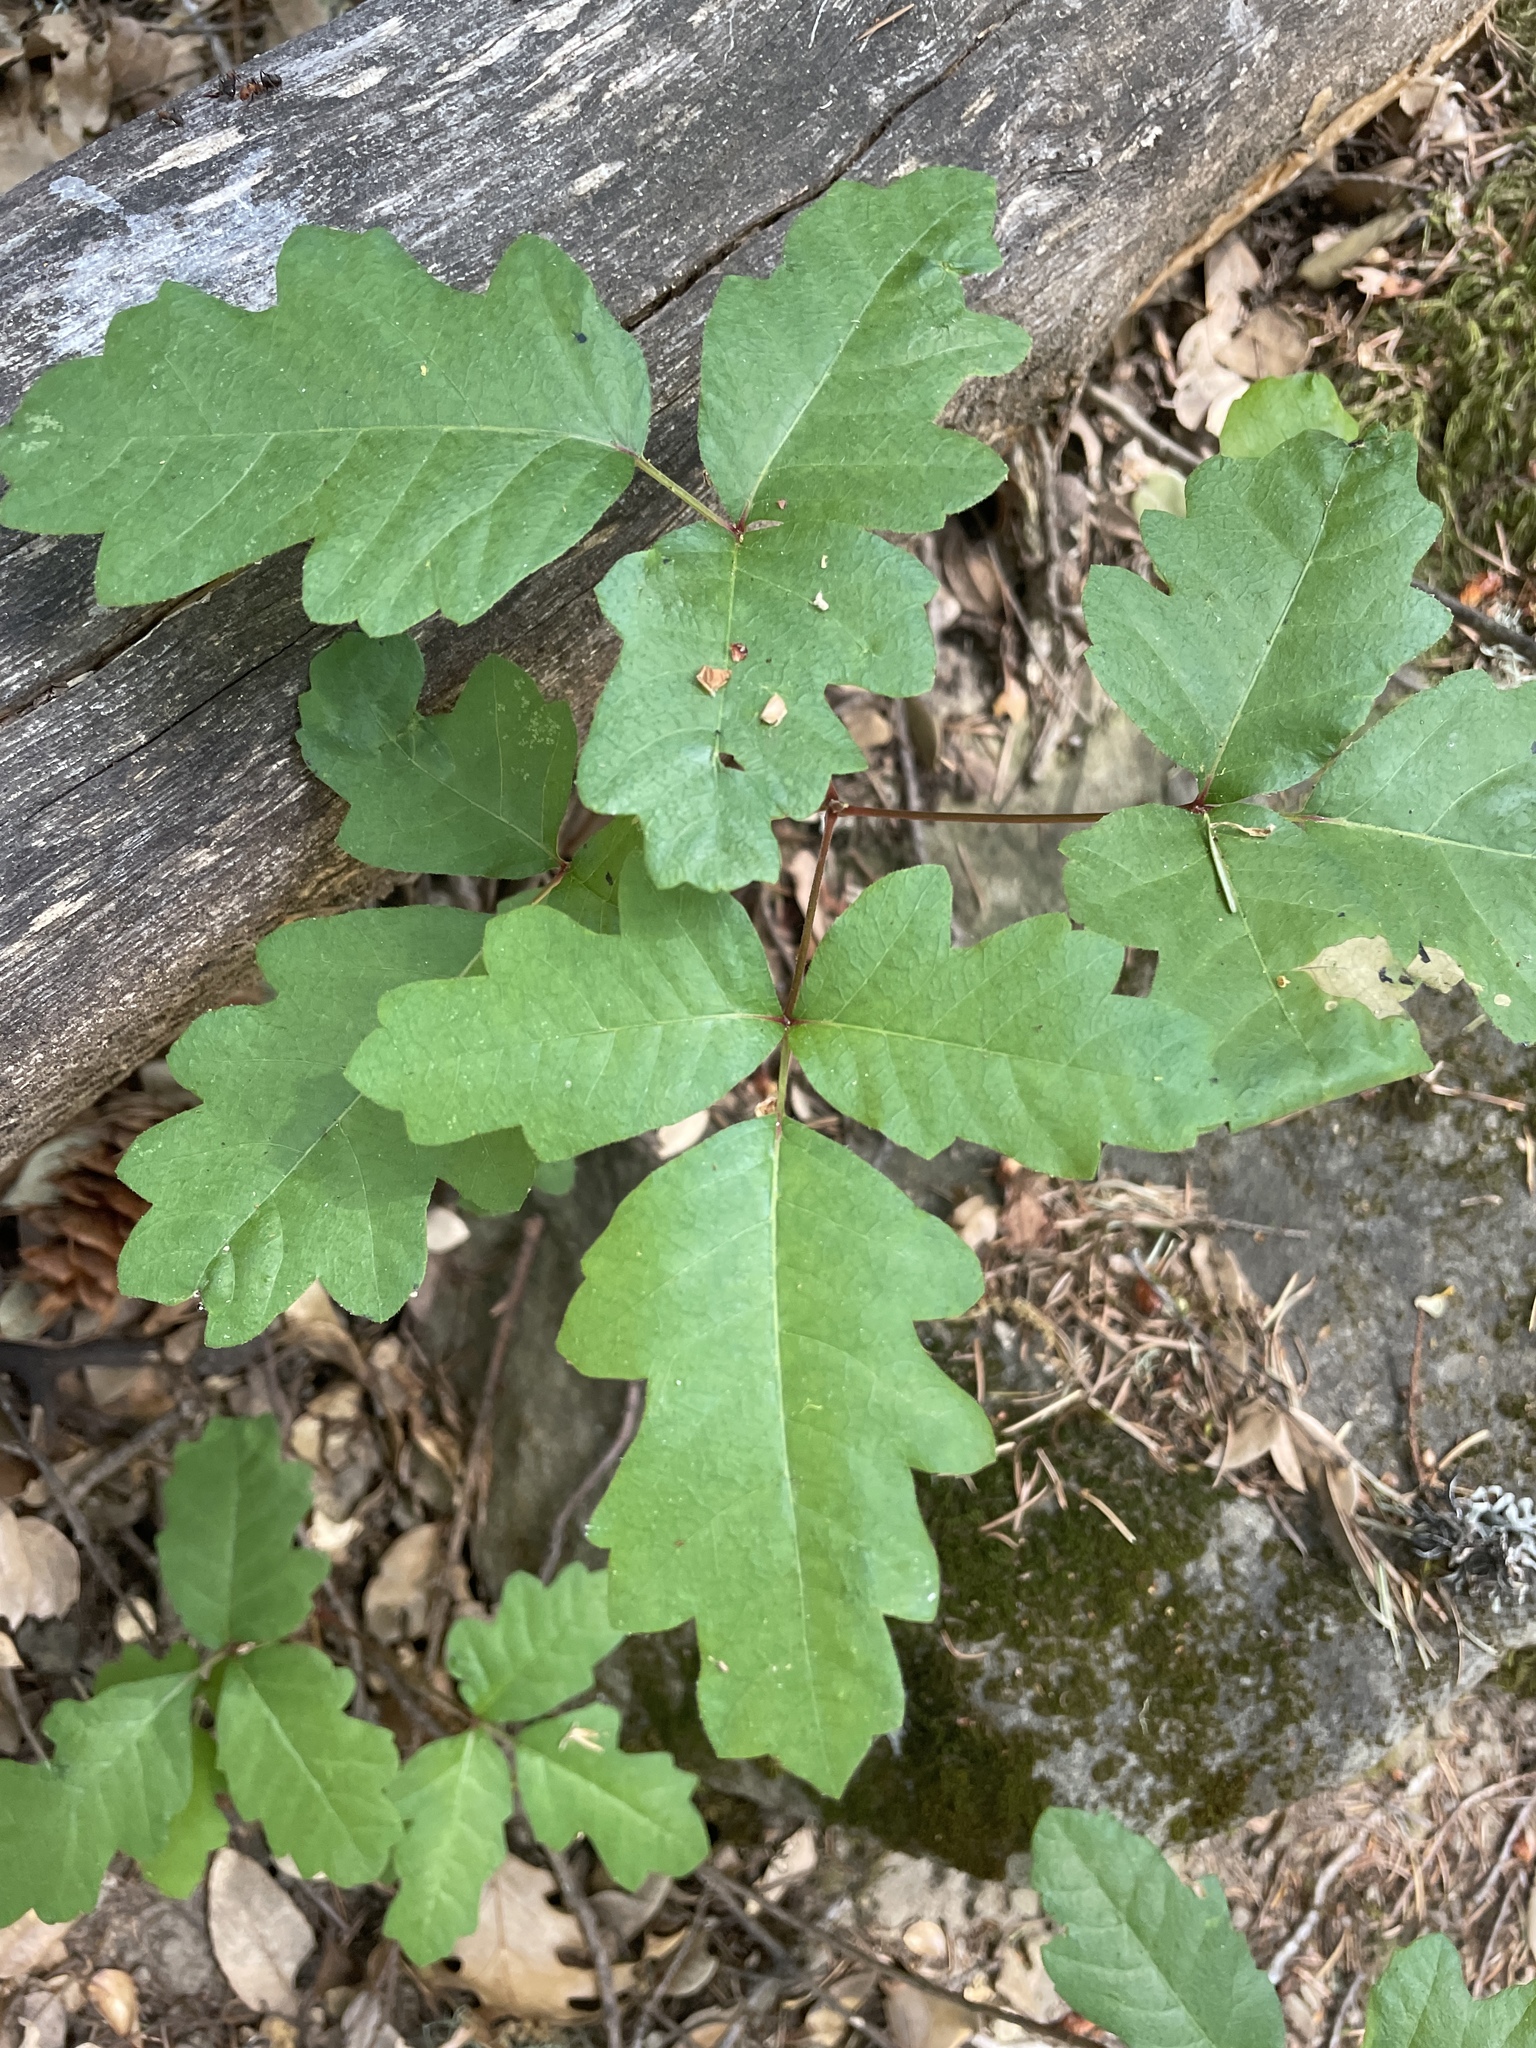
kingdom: Plantae
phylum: Tracheophyta
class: Magnoliopsida
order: Sapindales
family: Anacardiaceae
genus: Toxicodendron
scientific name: Toxicodendron diversilobum
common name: Pacific poison-oak
